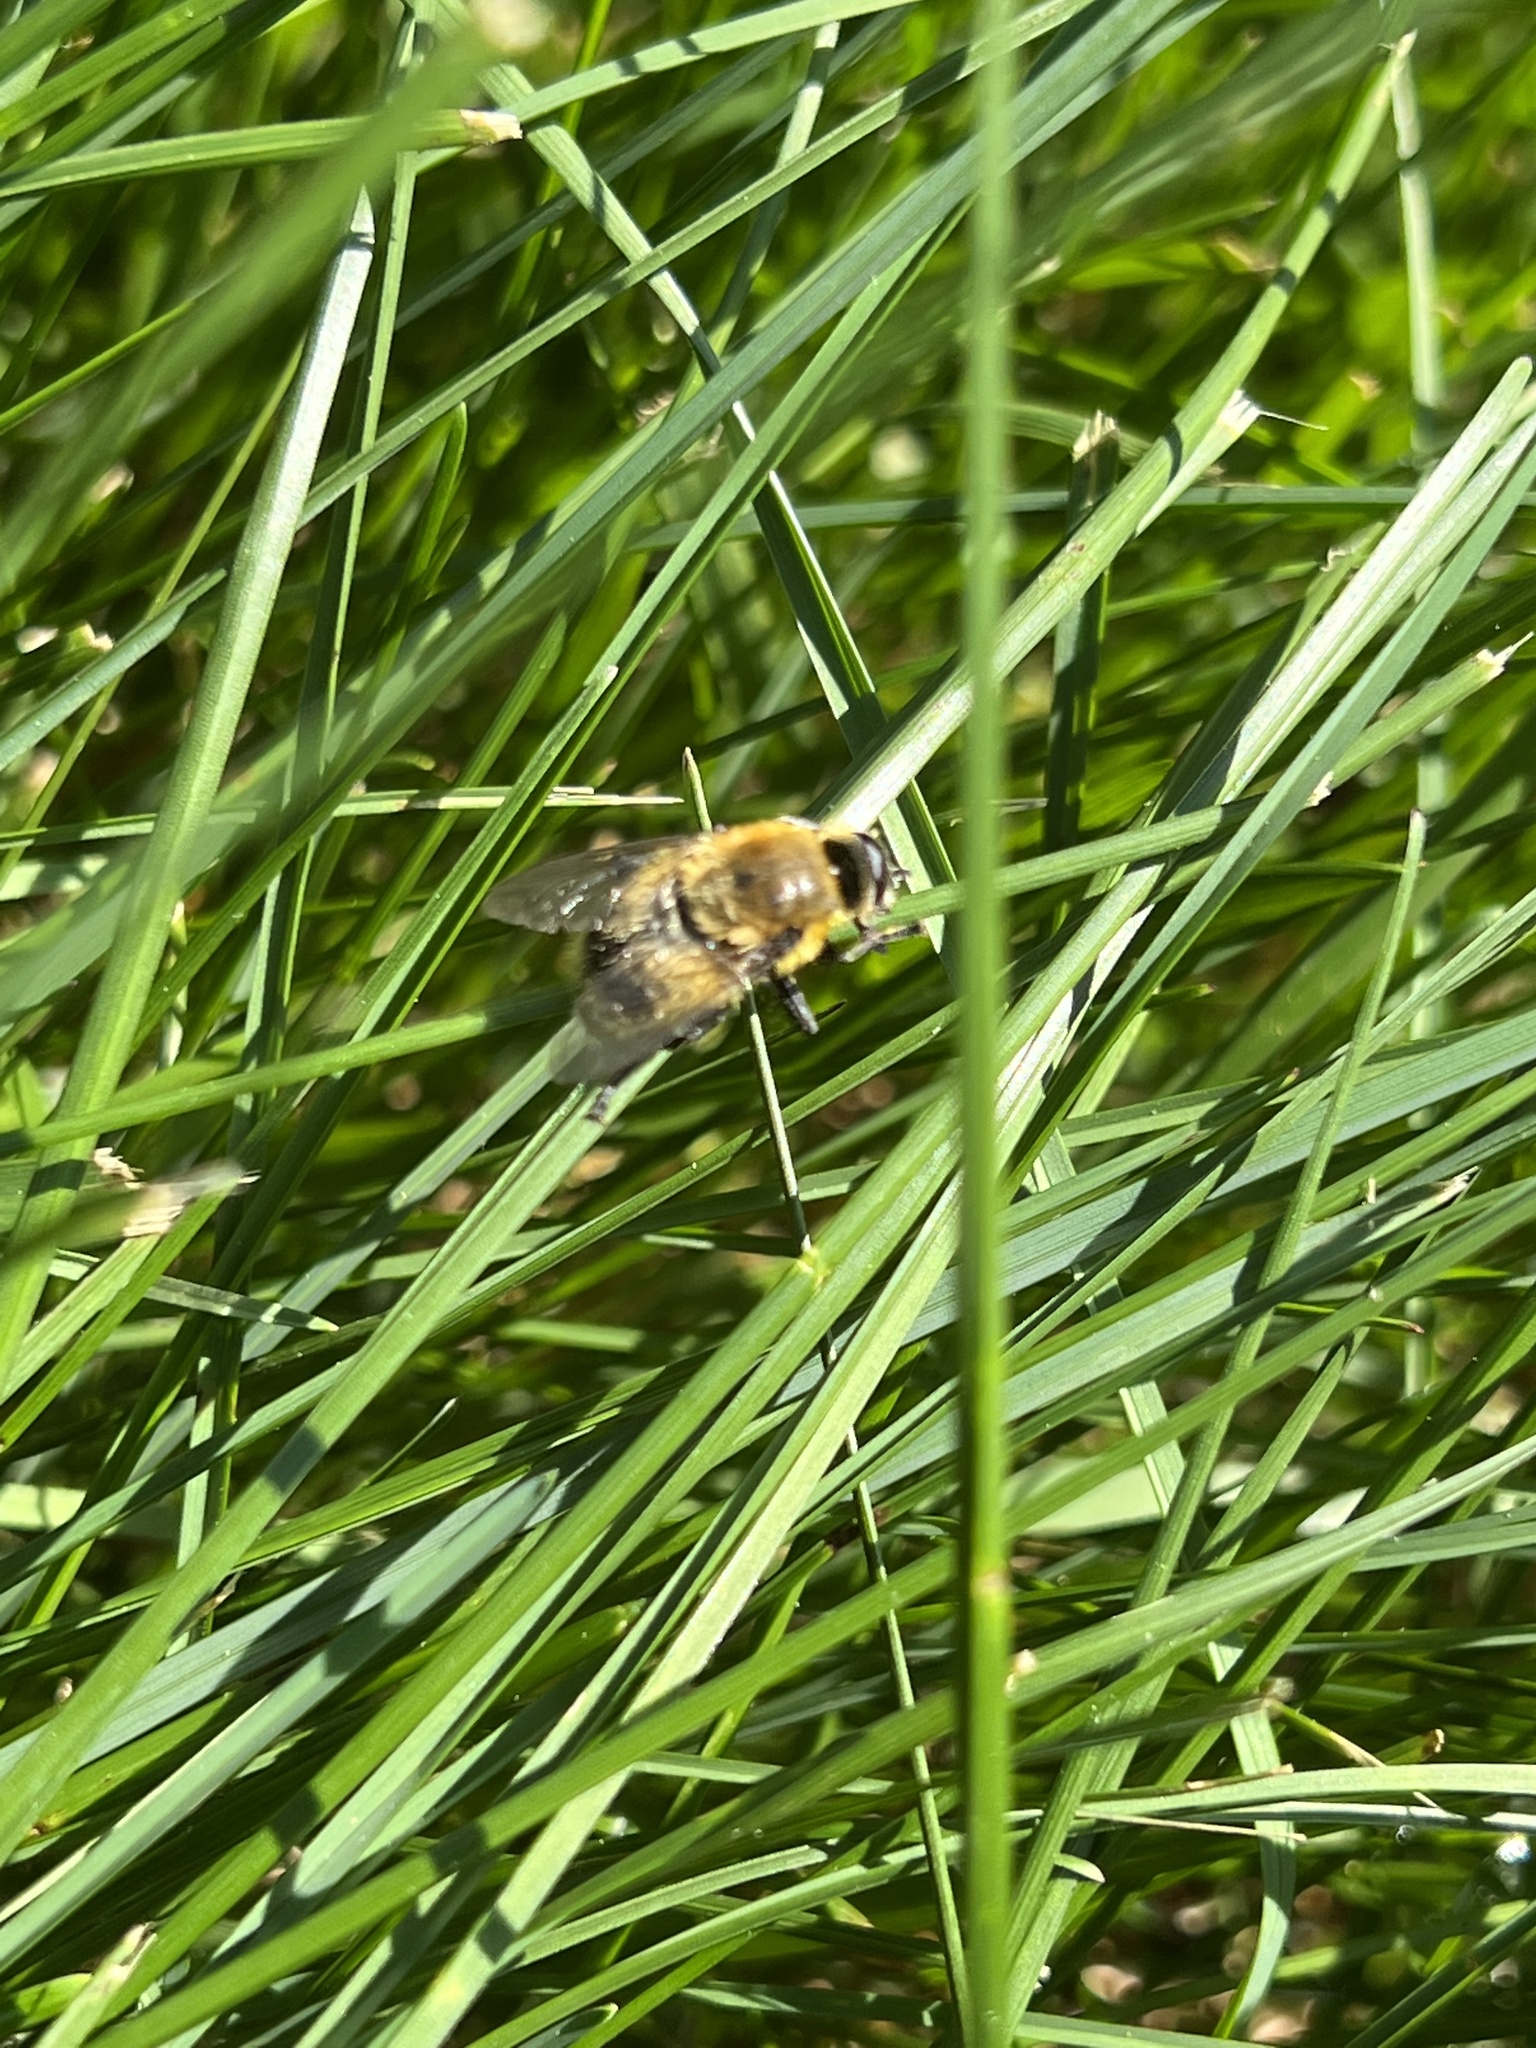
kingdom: Animalia
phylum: Arthropoda
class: Insecta
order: Diptera
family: Syrphidae
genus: Merodon
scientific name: Merodon equestris
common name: Greater bulb-fly
